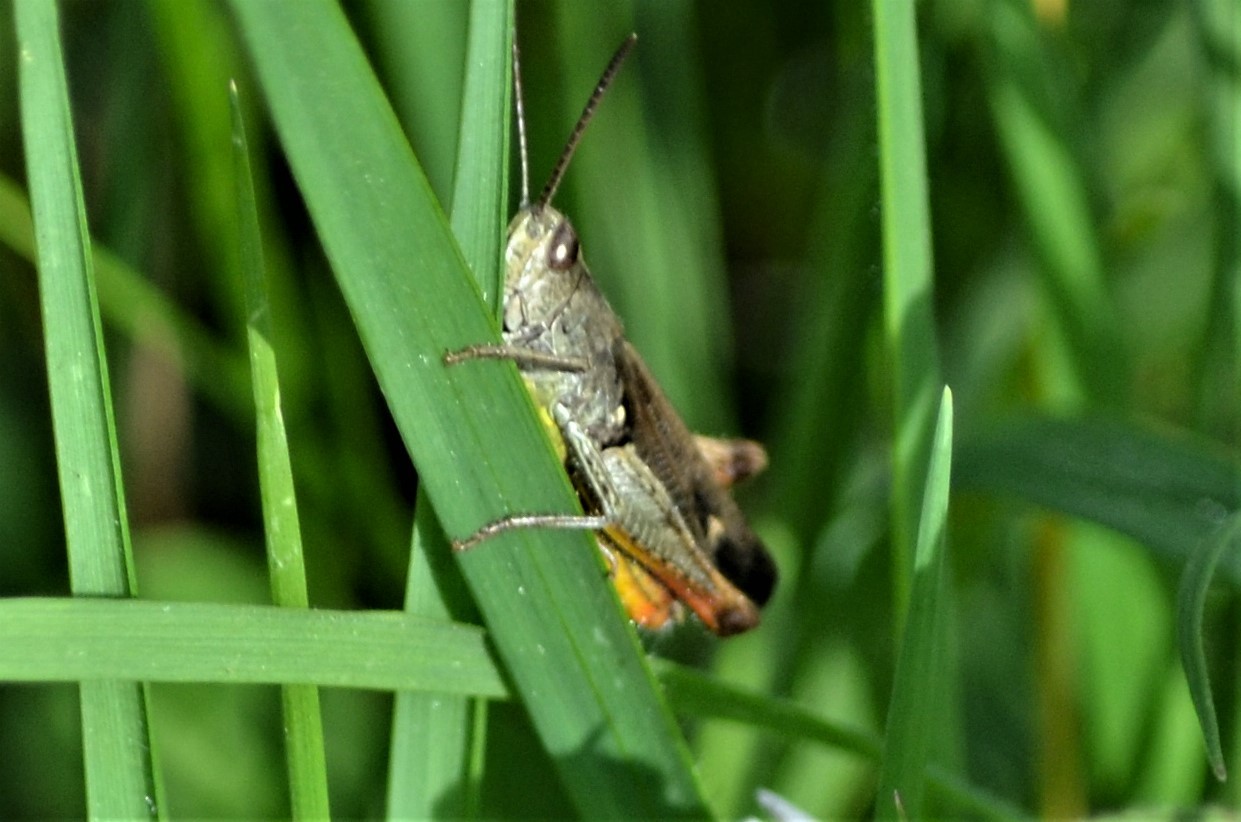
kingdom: Animalia
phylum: Arthropoda
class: Insecta
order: Orthoptera
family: Acrididae
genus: Chorthippus
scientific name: Chorthippus biguttulus
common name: Bow-winged grasshopper
